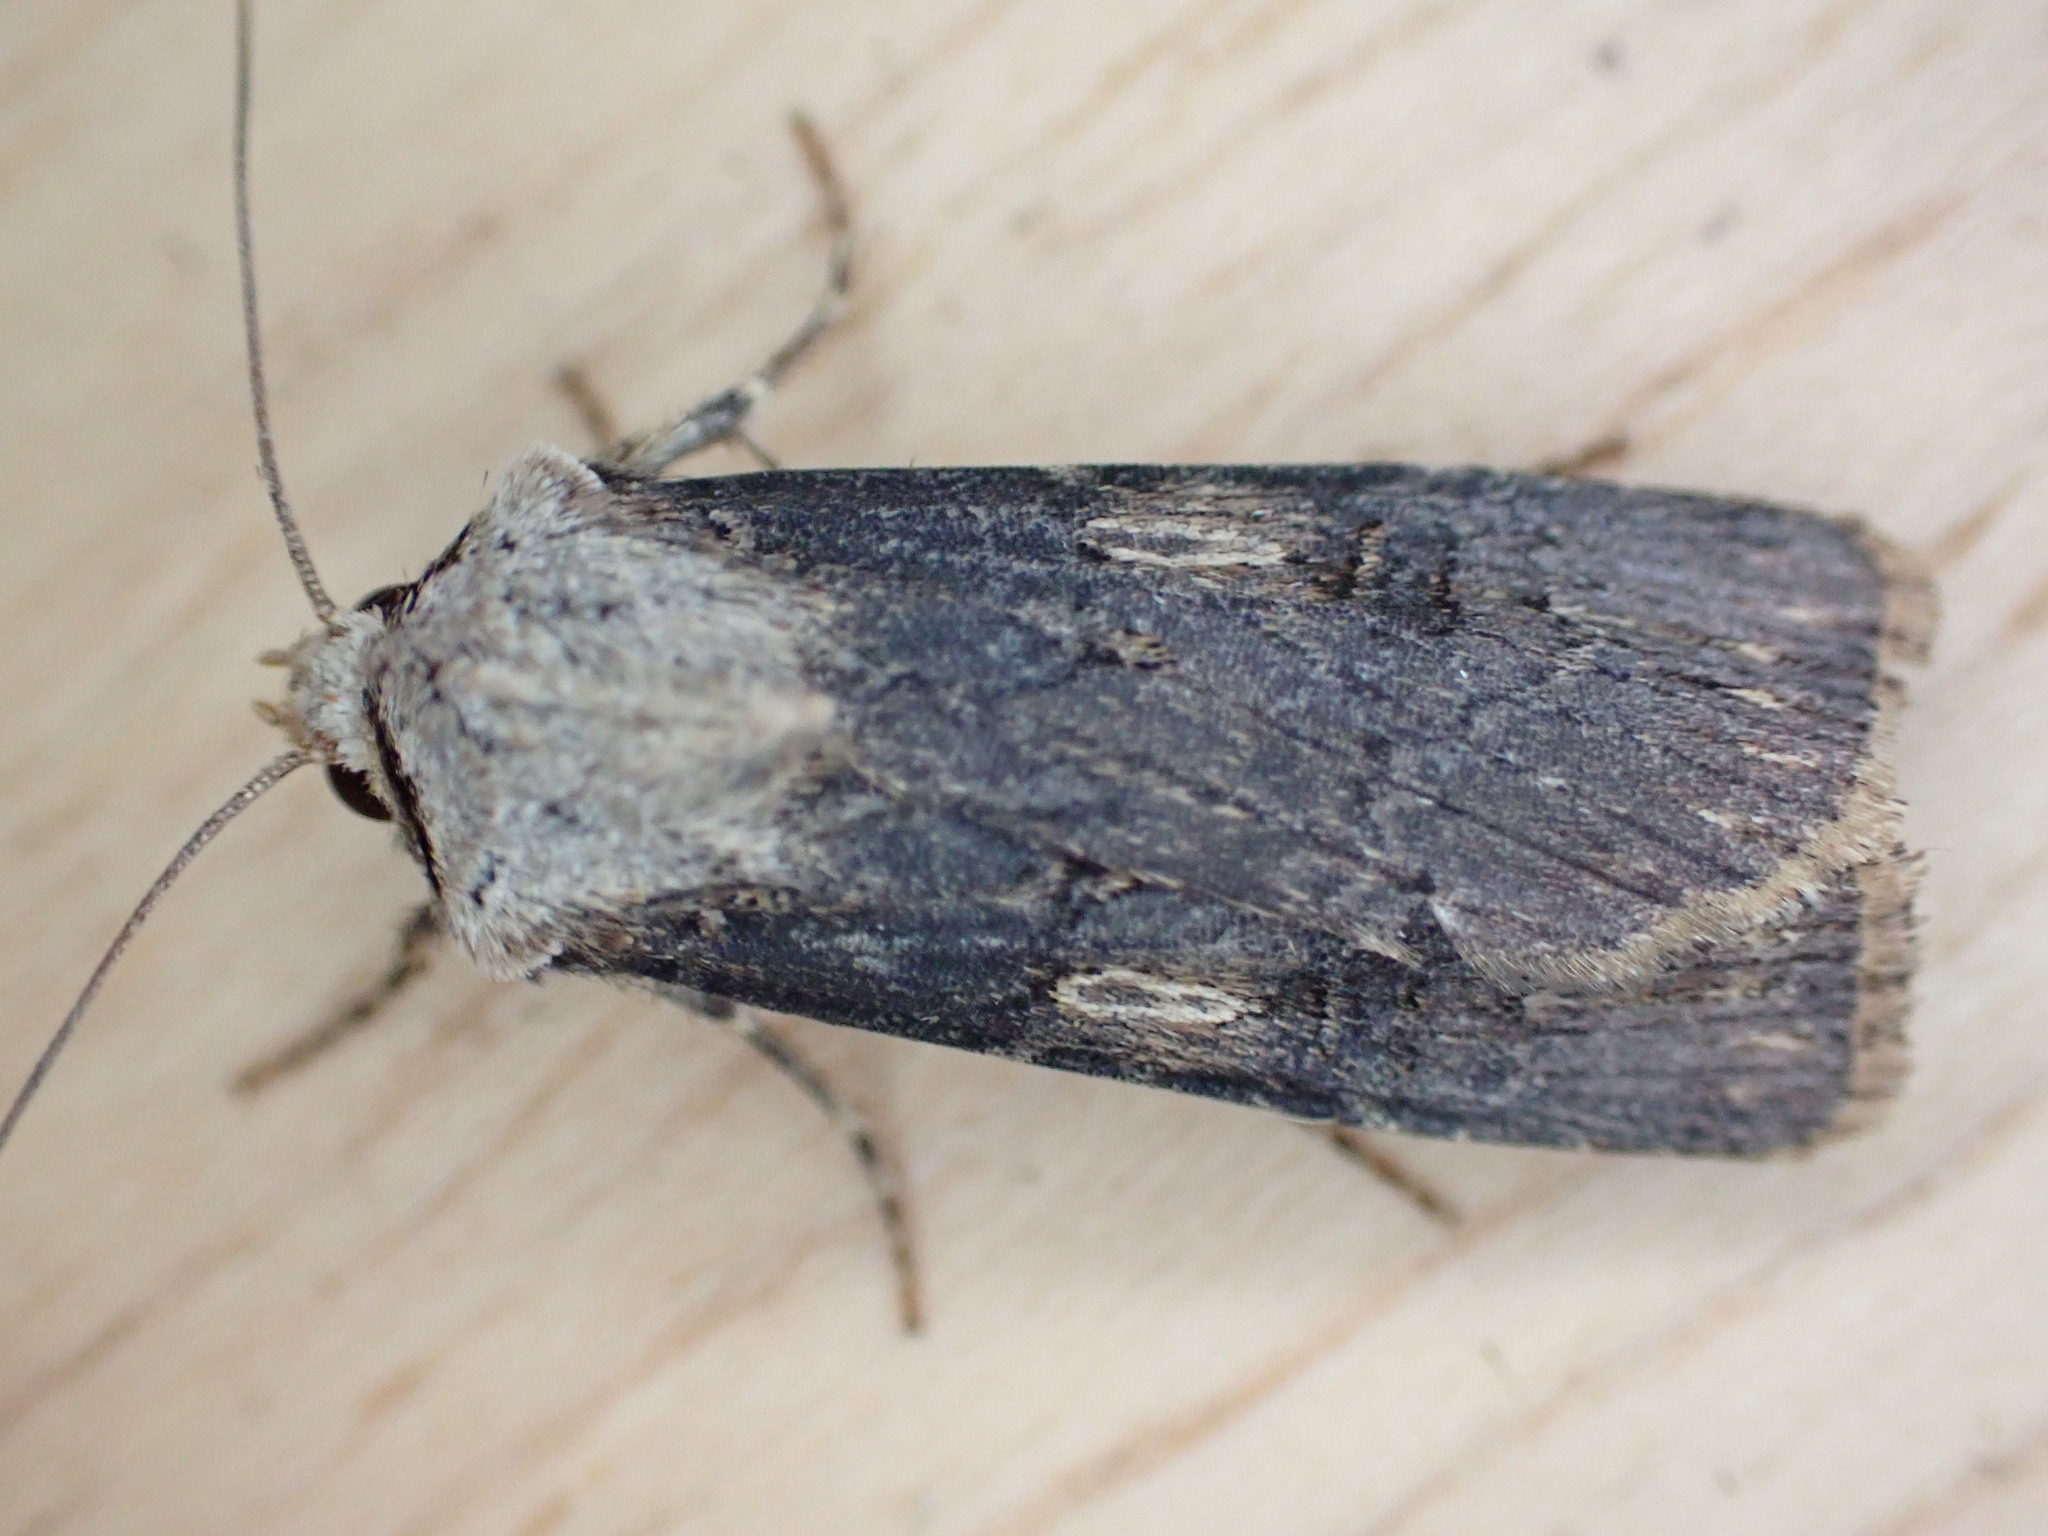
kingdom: Animalia
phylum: Arthropoda
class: Insecta
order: Lepidoptera
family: Noctuidae
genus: Agrotis
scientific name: Agrotis puta
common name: Shuttle-shaped dart
